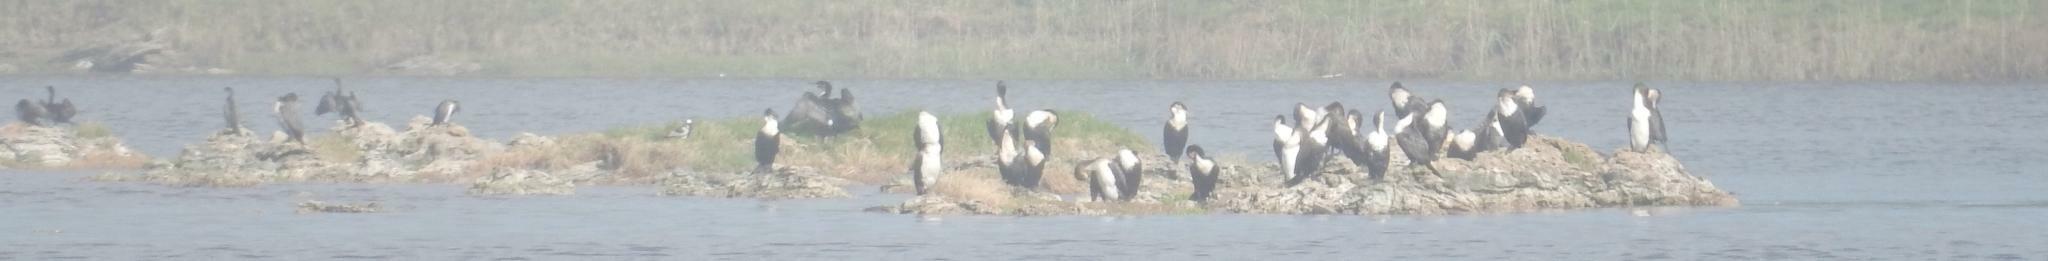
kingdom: Animalia
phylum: Chordata
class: Aves
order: Suliformes
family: Phalacrocoracidae
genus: Phalacrocorax
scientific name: Phalacrocorax carbo
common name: Great cormorant
